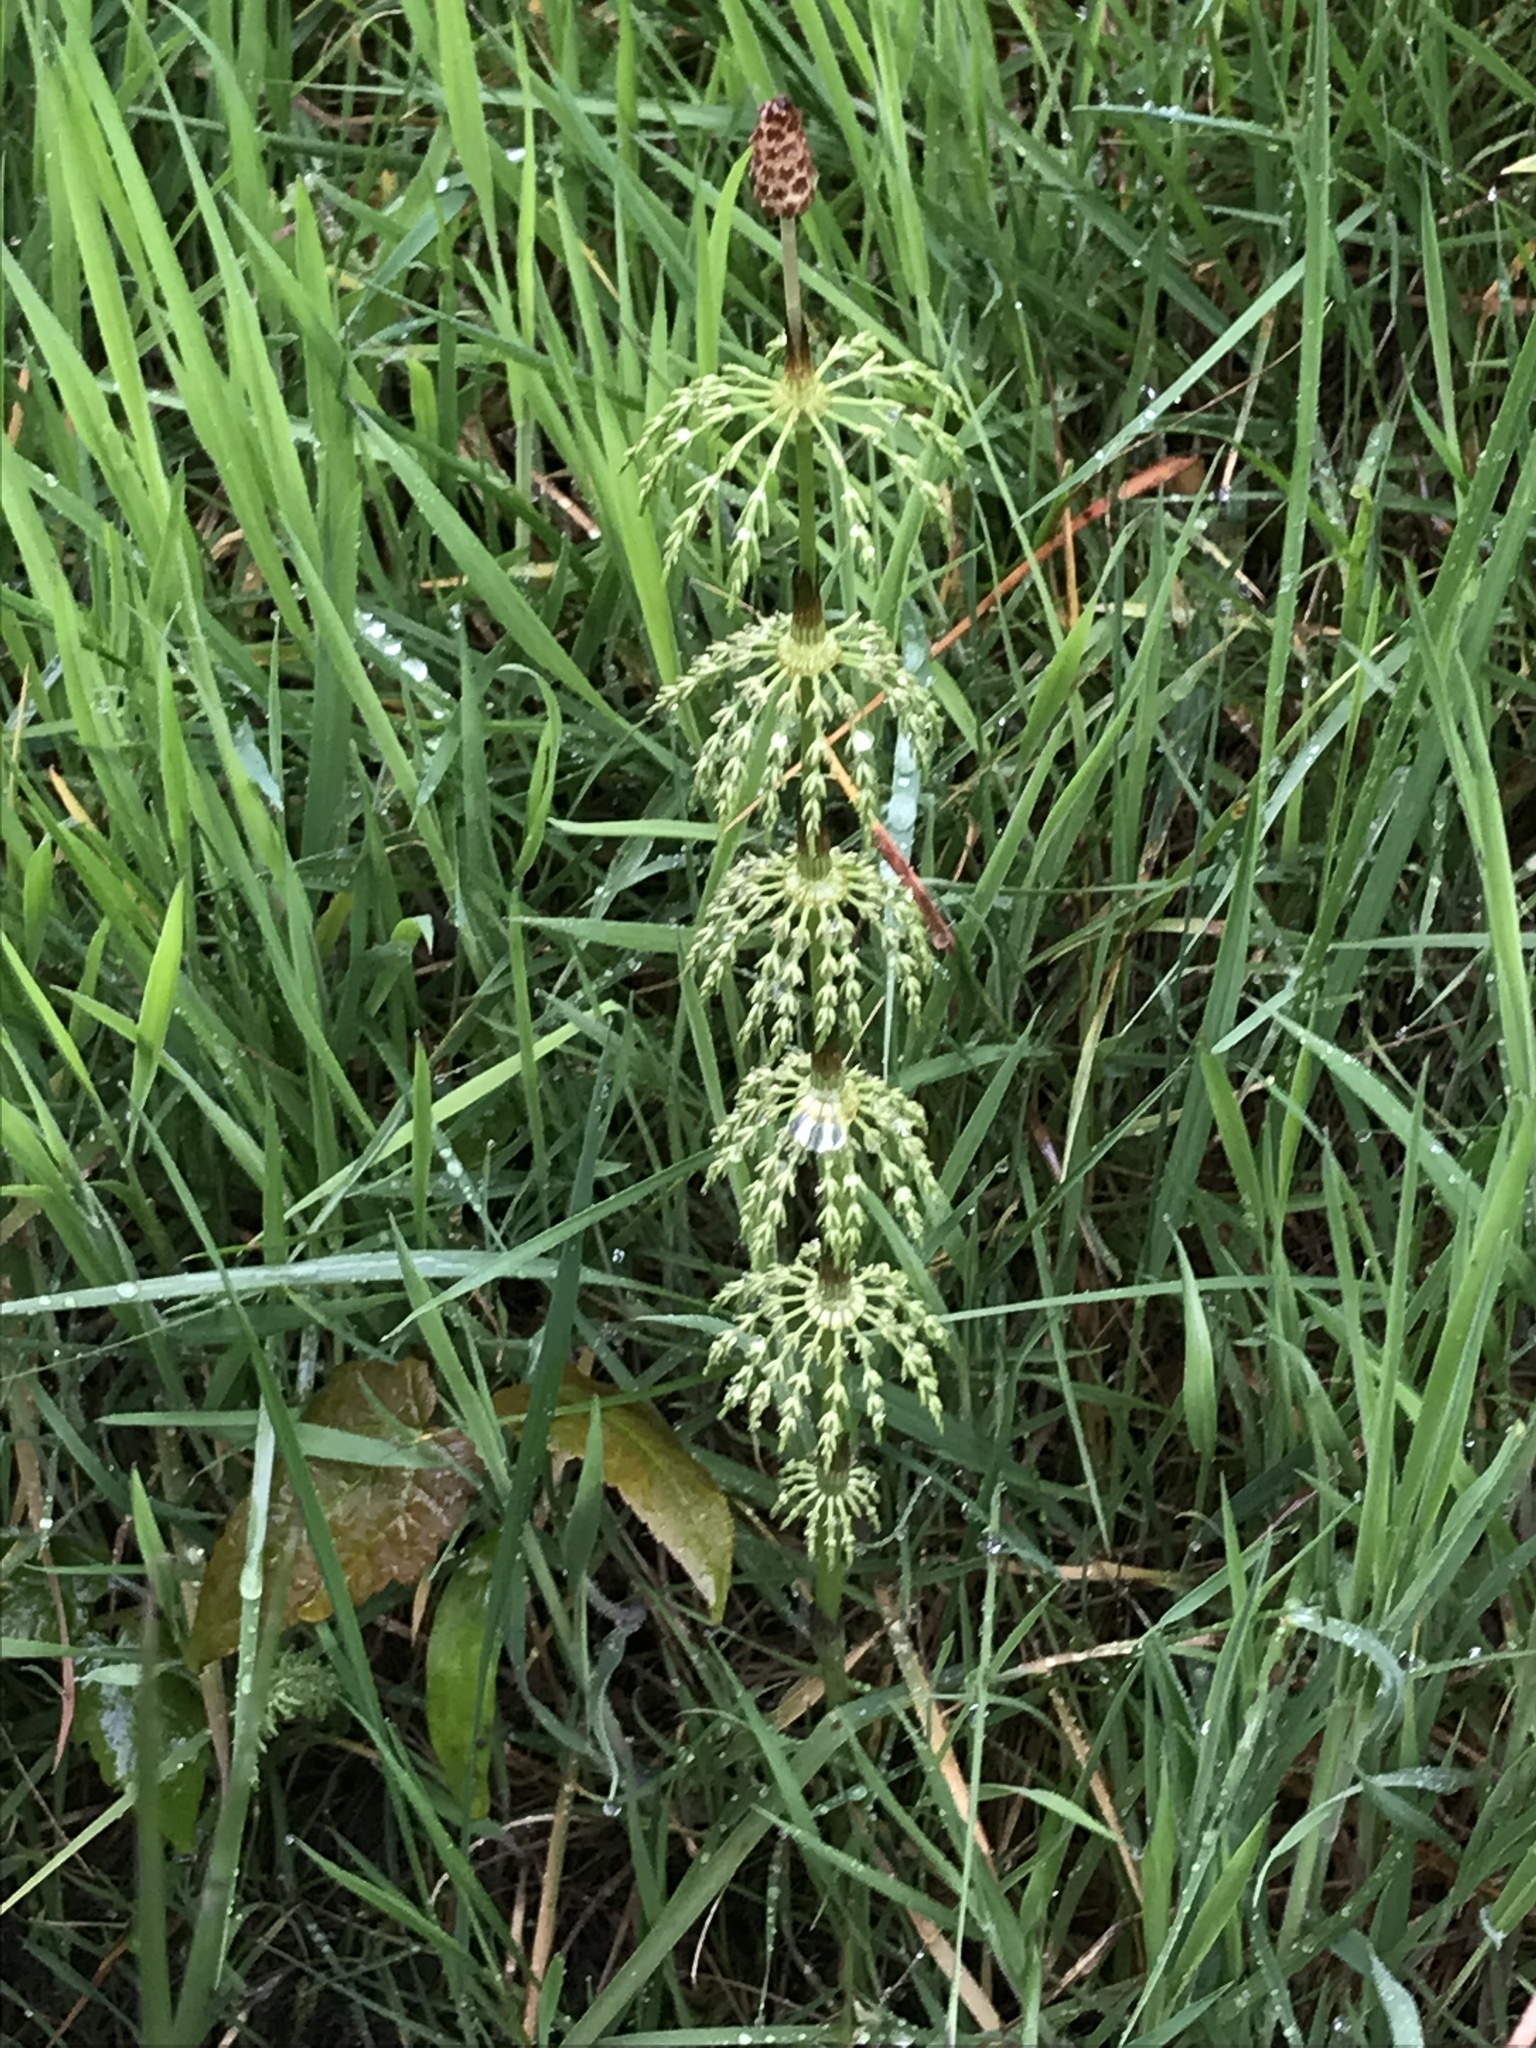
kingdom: Plantae
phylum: Tracheophyta
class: Polypodiopsida
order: Equisetales
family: Equisetaceae
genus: Equisetum
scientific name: Equisetum sylvaticum
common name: Wood horsetail
